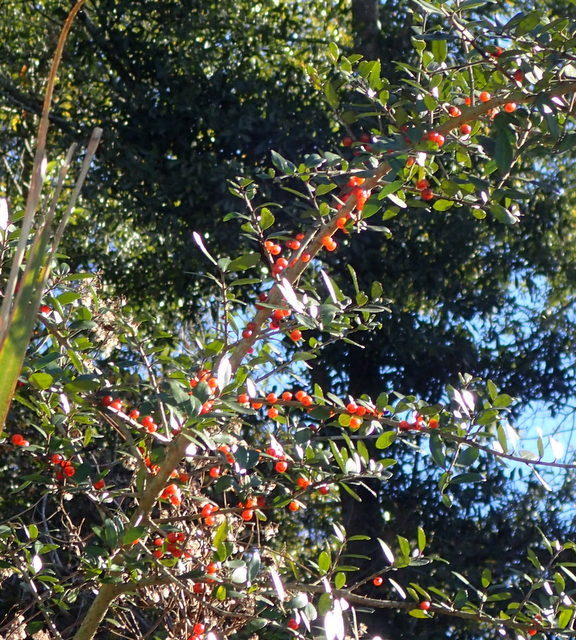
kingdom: Plantae
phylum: Tracheophyta
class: Magnoliopsida
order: Aquifoliales
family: Aquifoliaceae
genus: Ilex
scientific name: Ilex vomitoria
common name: Yaupon holly
